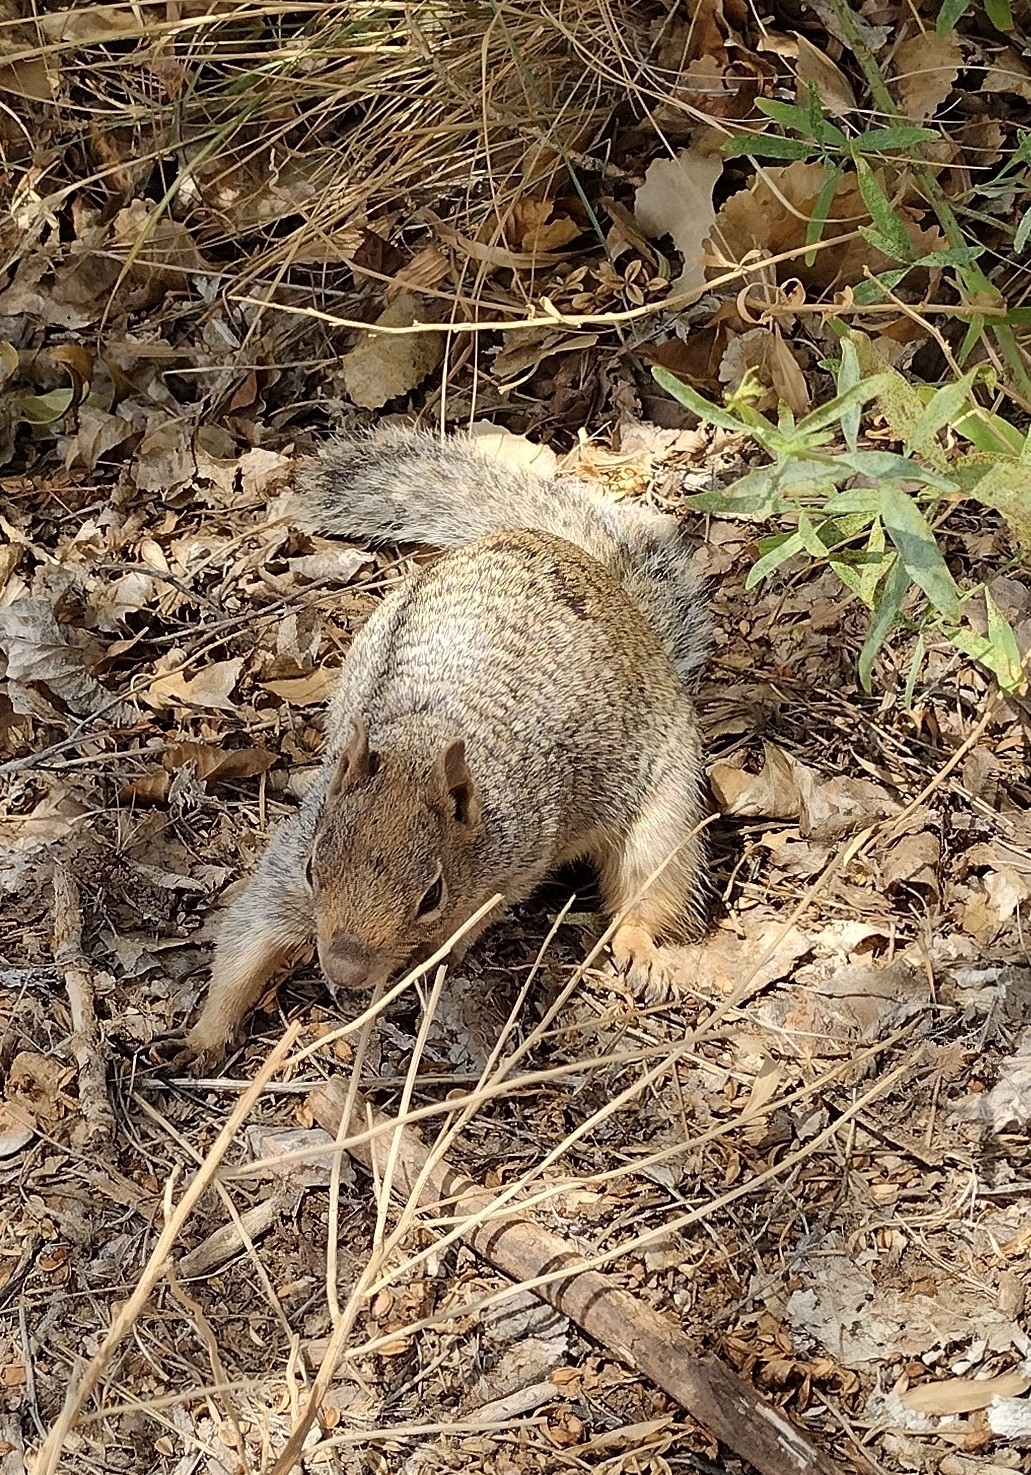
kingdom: Animalia
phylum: Chordata
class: Mammalia
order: Rodentia
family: Sciuridae
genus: Otospermophilus
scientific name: Otospermophilus variegatus
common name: Rock squirrel
